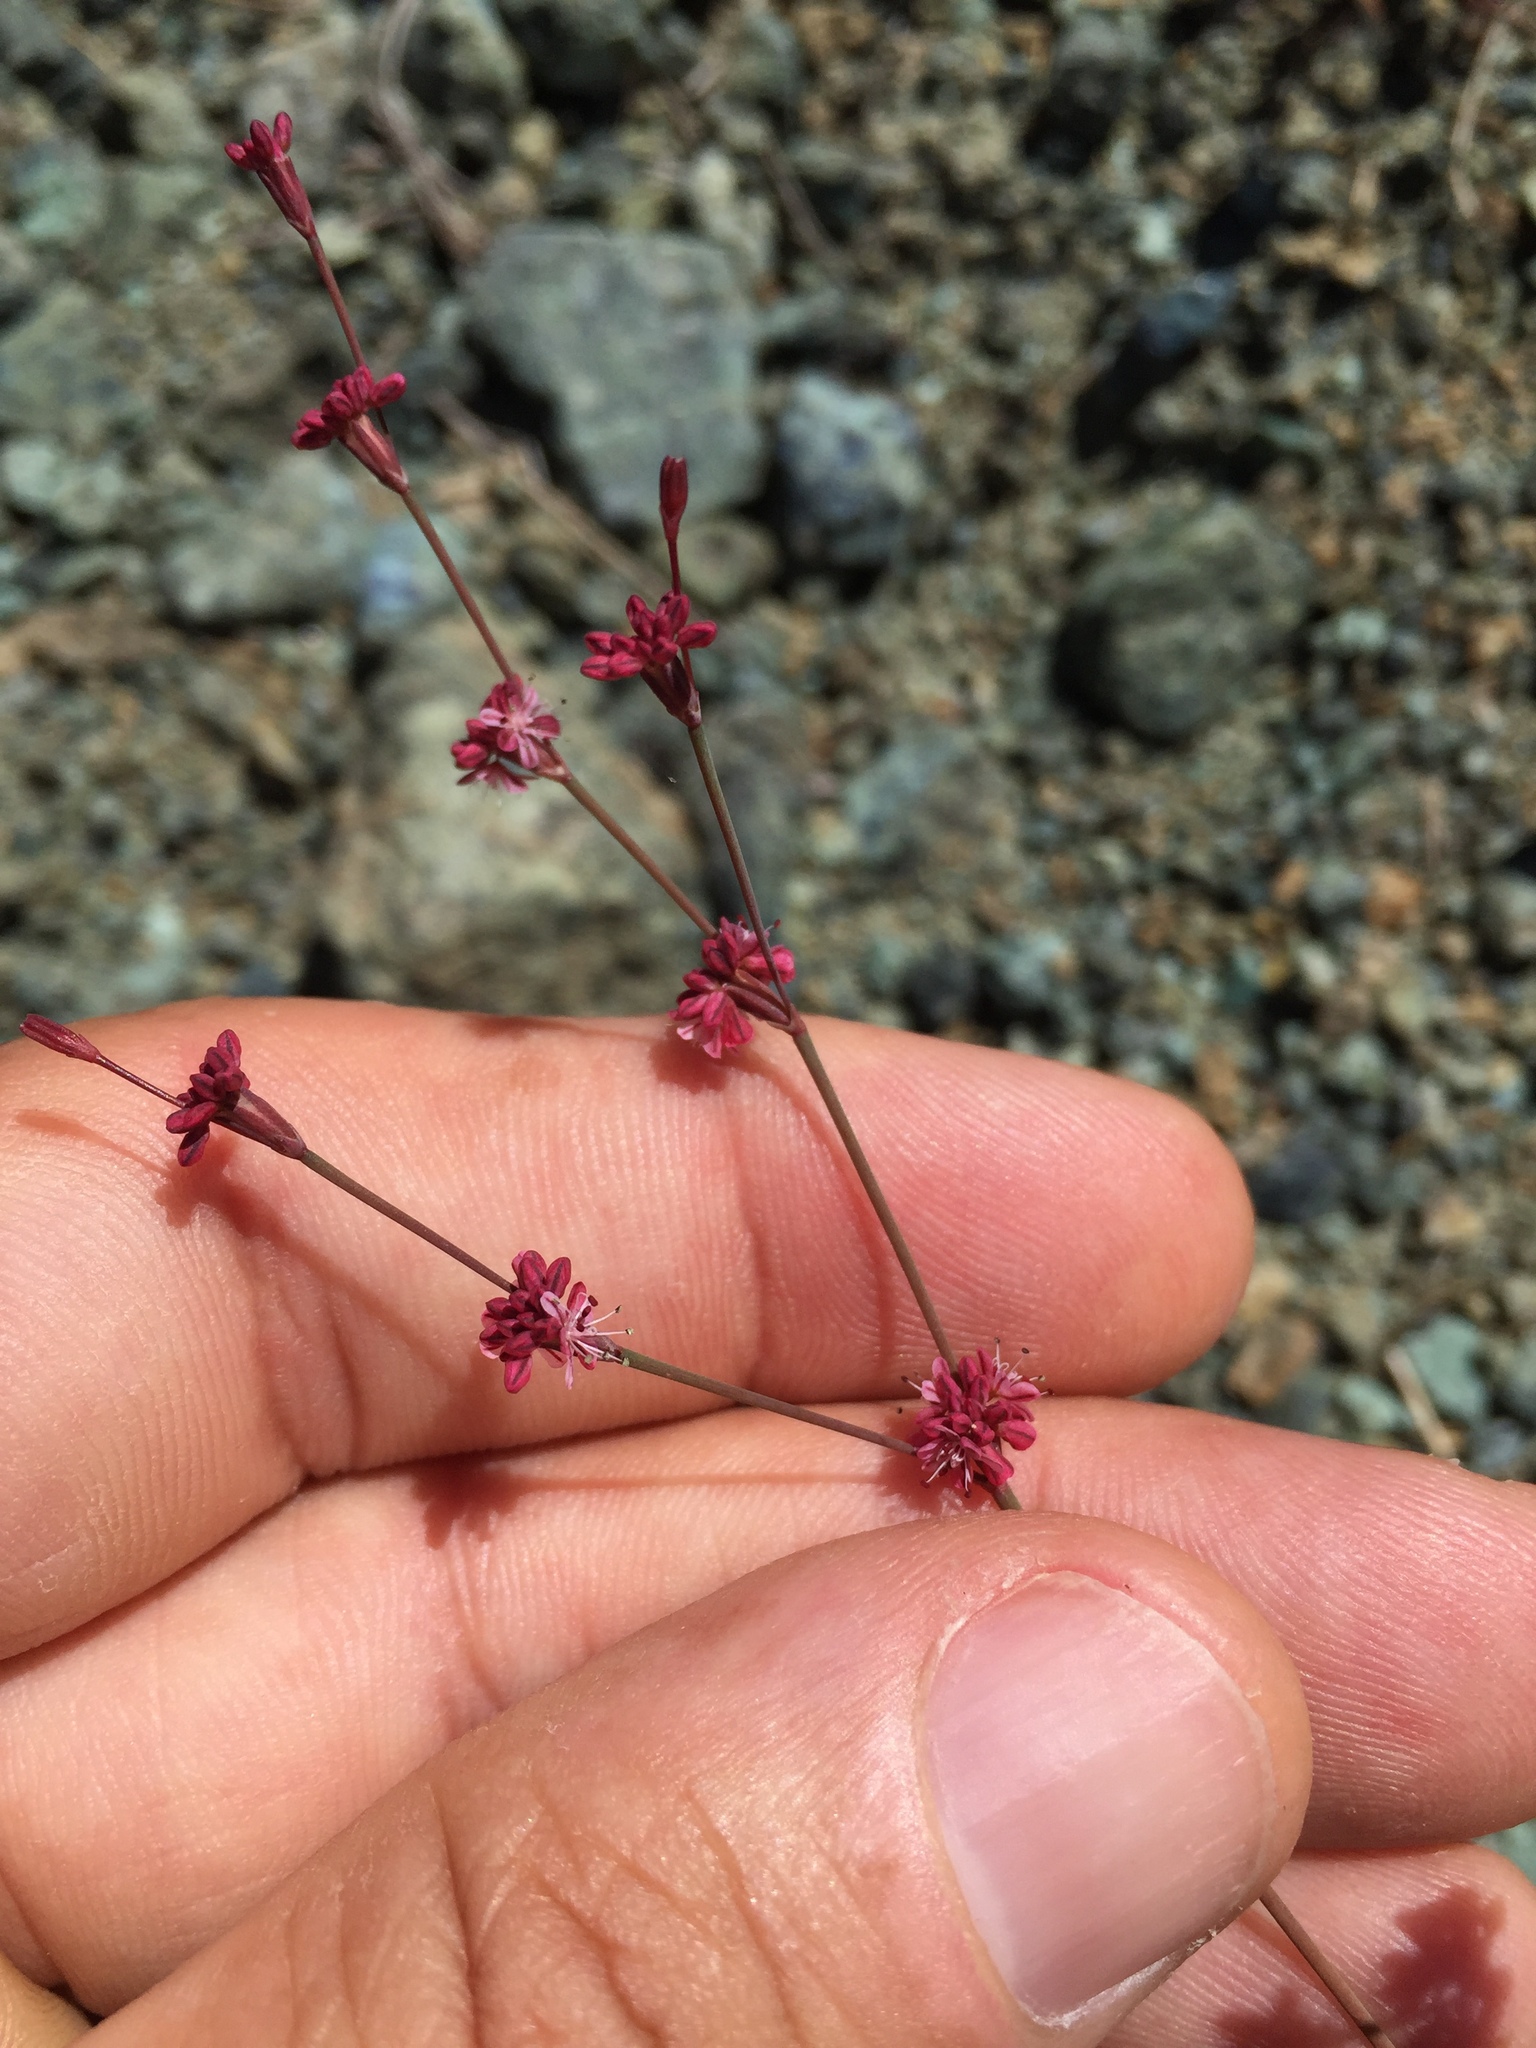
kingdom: Plantae
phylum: Tracheophyta
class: Magnoliopsida
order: Caryophyllales
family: Polygonaceae
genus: Eriogonum
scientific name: Eriogonum luteolum
